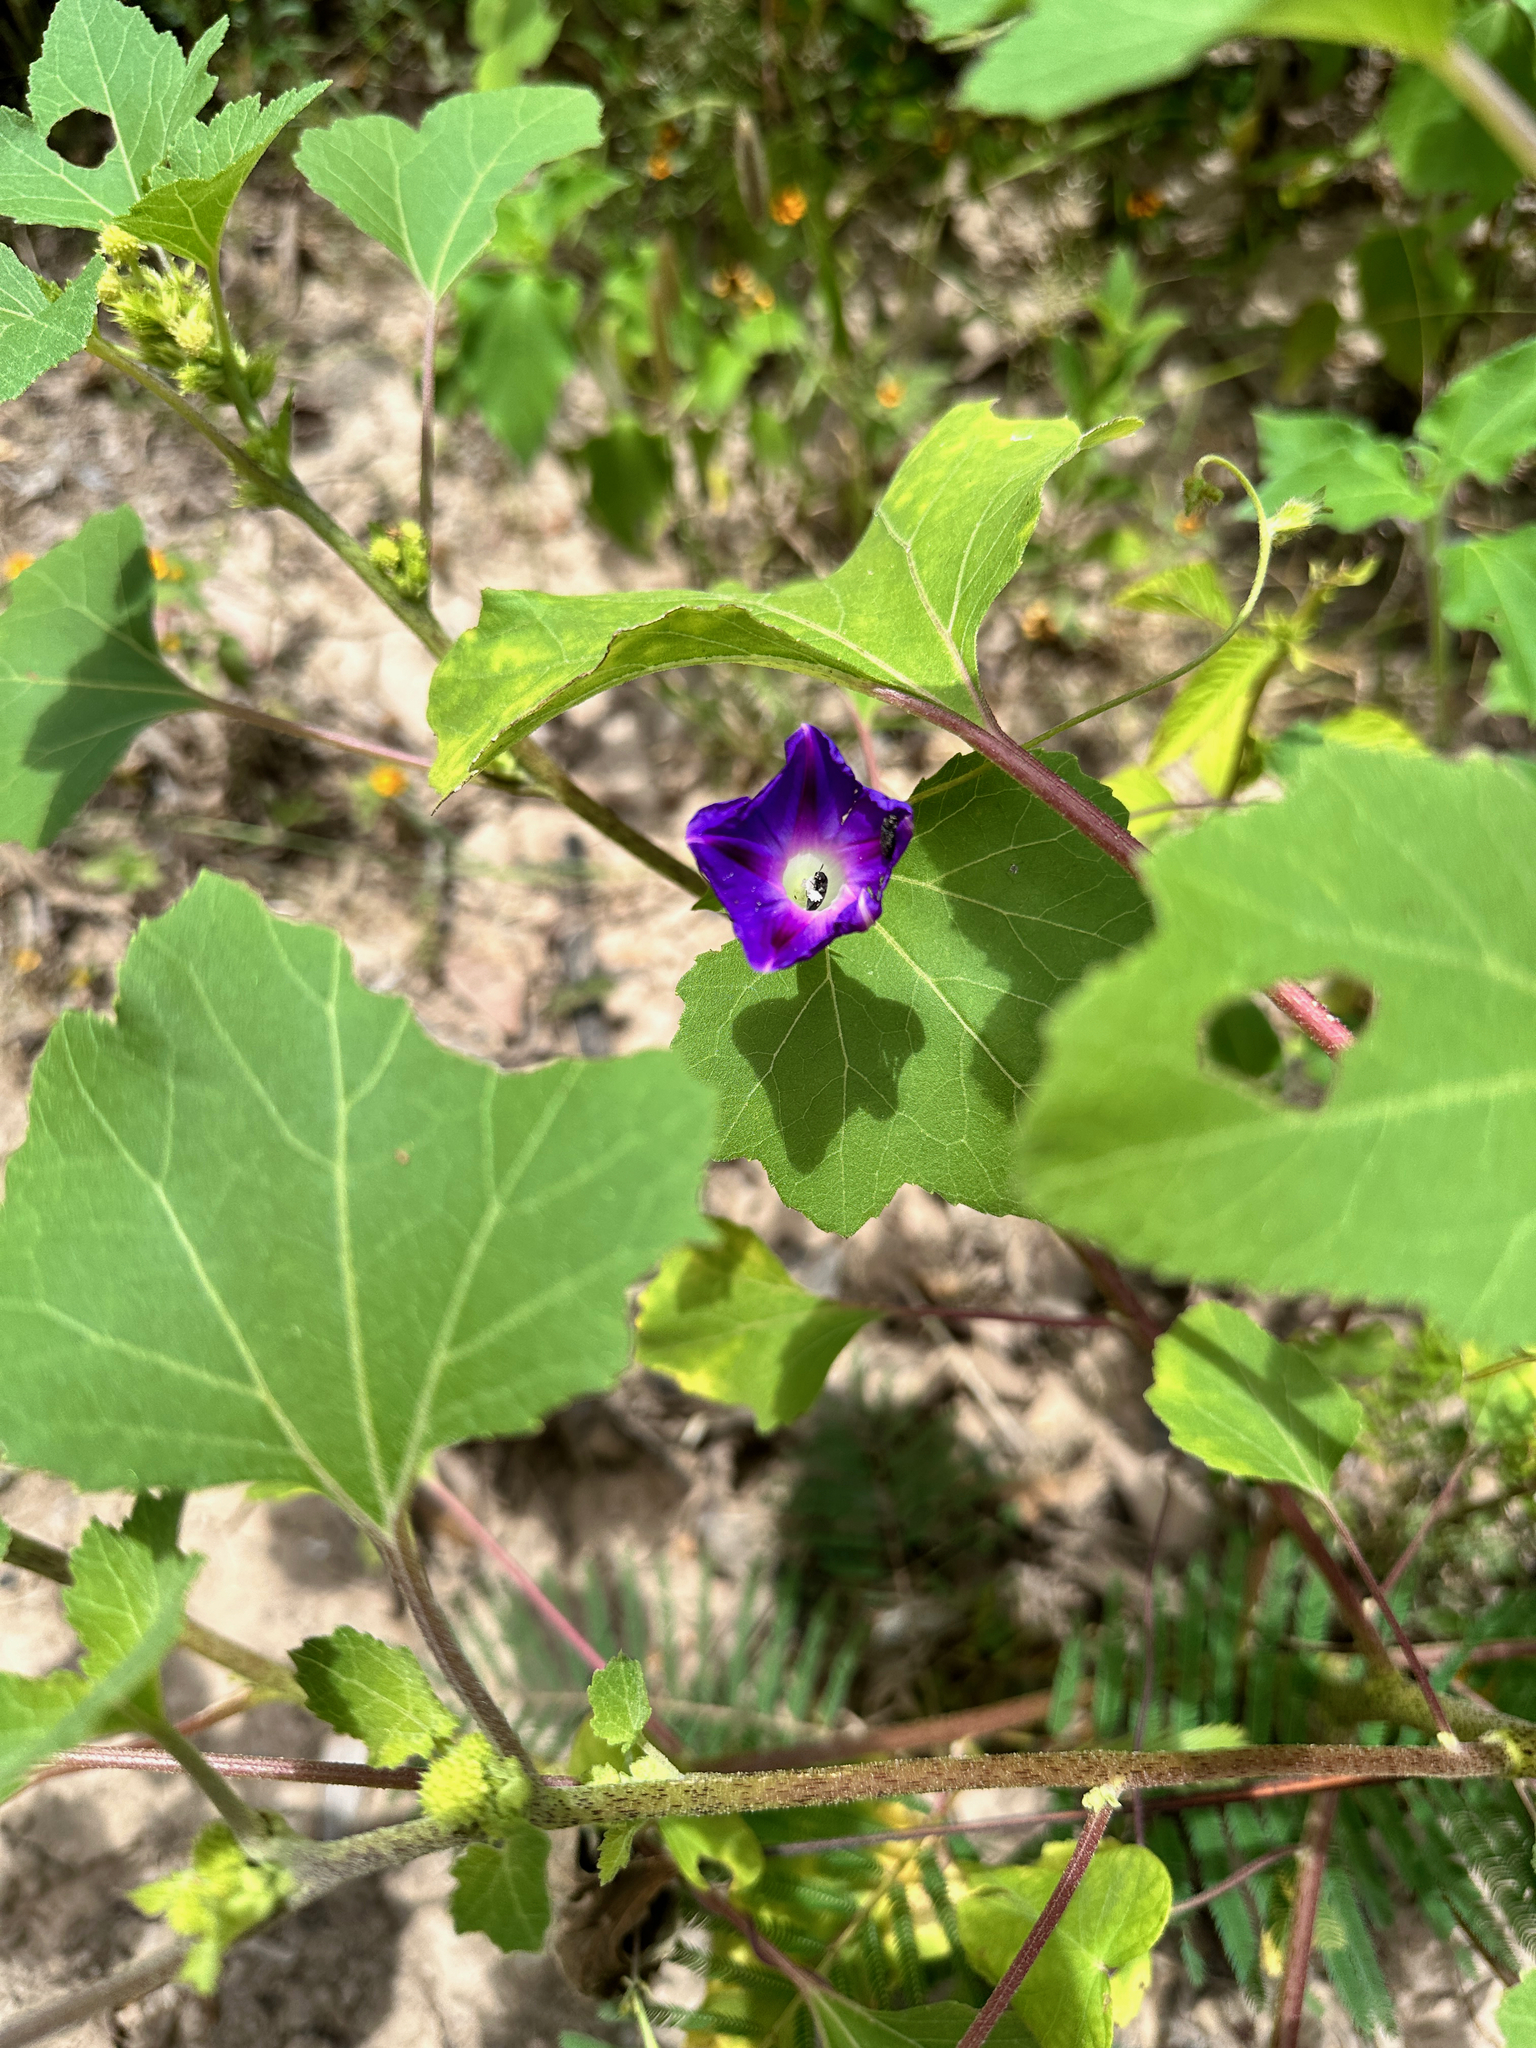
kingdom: Plantae
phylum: Tracheophyta
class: Magnoliopsida
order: Solanales
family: Convolvulaceae
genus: Ipomoea
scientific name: Ipomoea purpurea
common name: Common morning-glory
